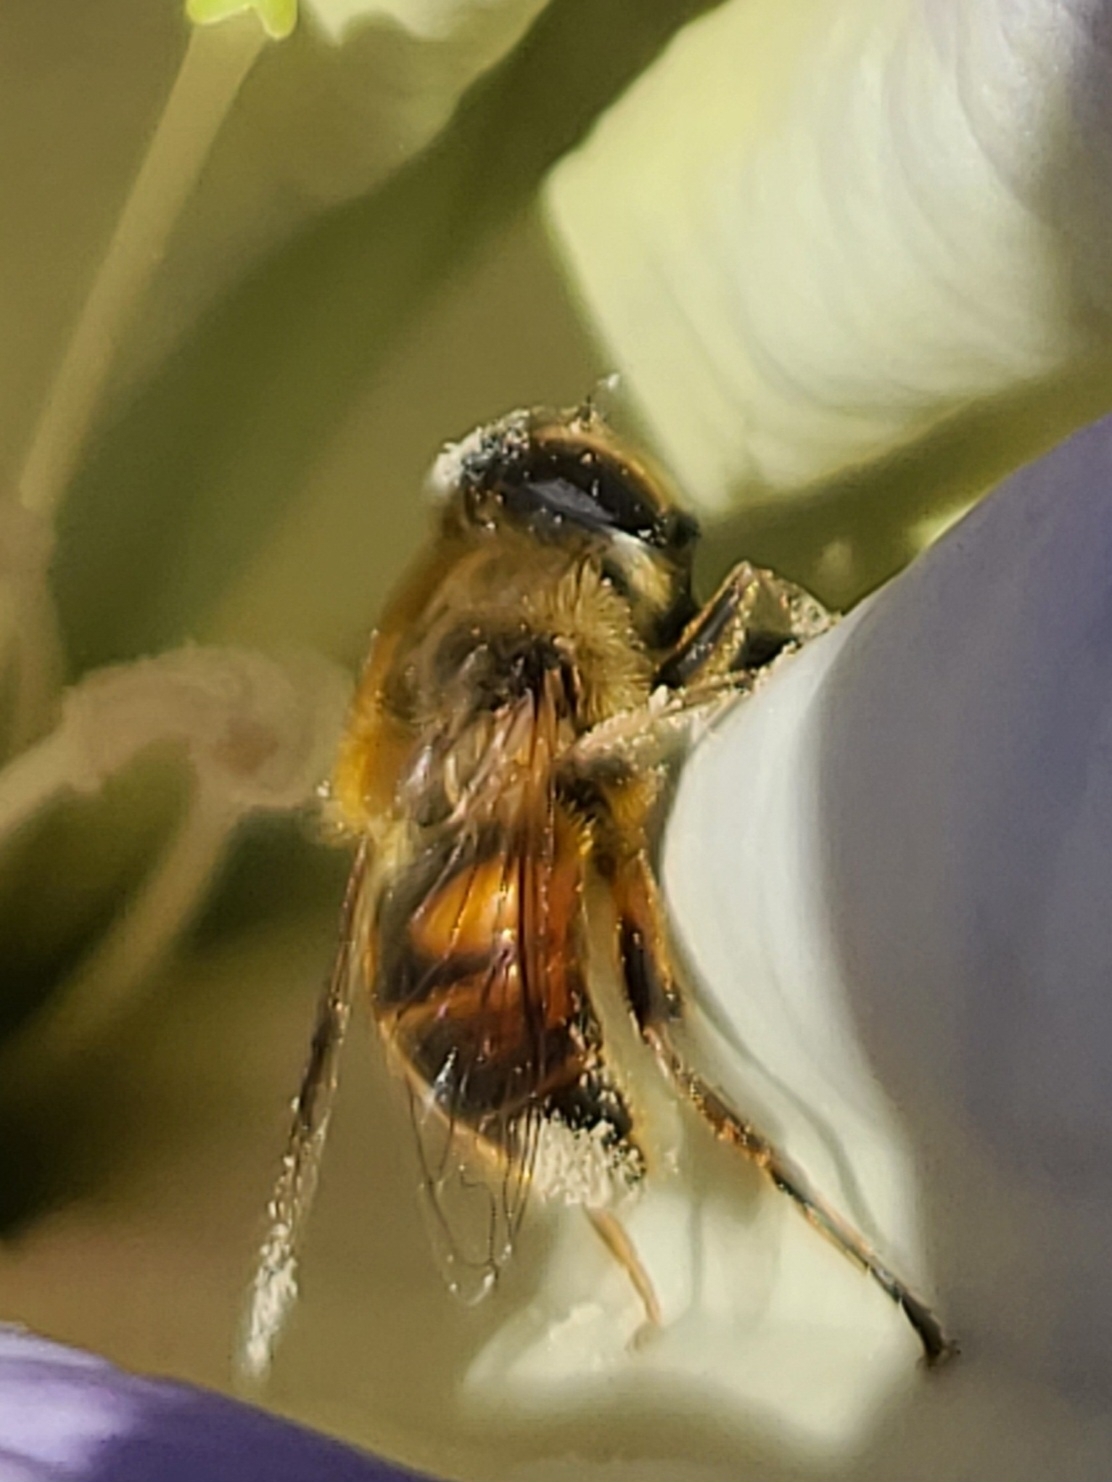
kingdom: Animalia
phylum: Arthropoda
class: Insecta
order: Diptera
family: Syrphidae
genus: Eristalis
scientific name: Eristalis tenax
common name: Drone fly
